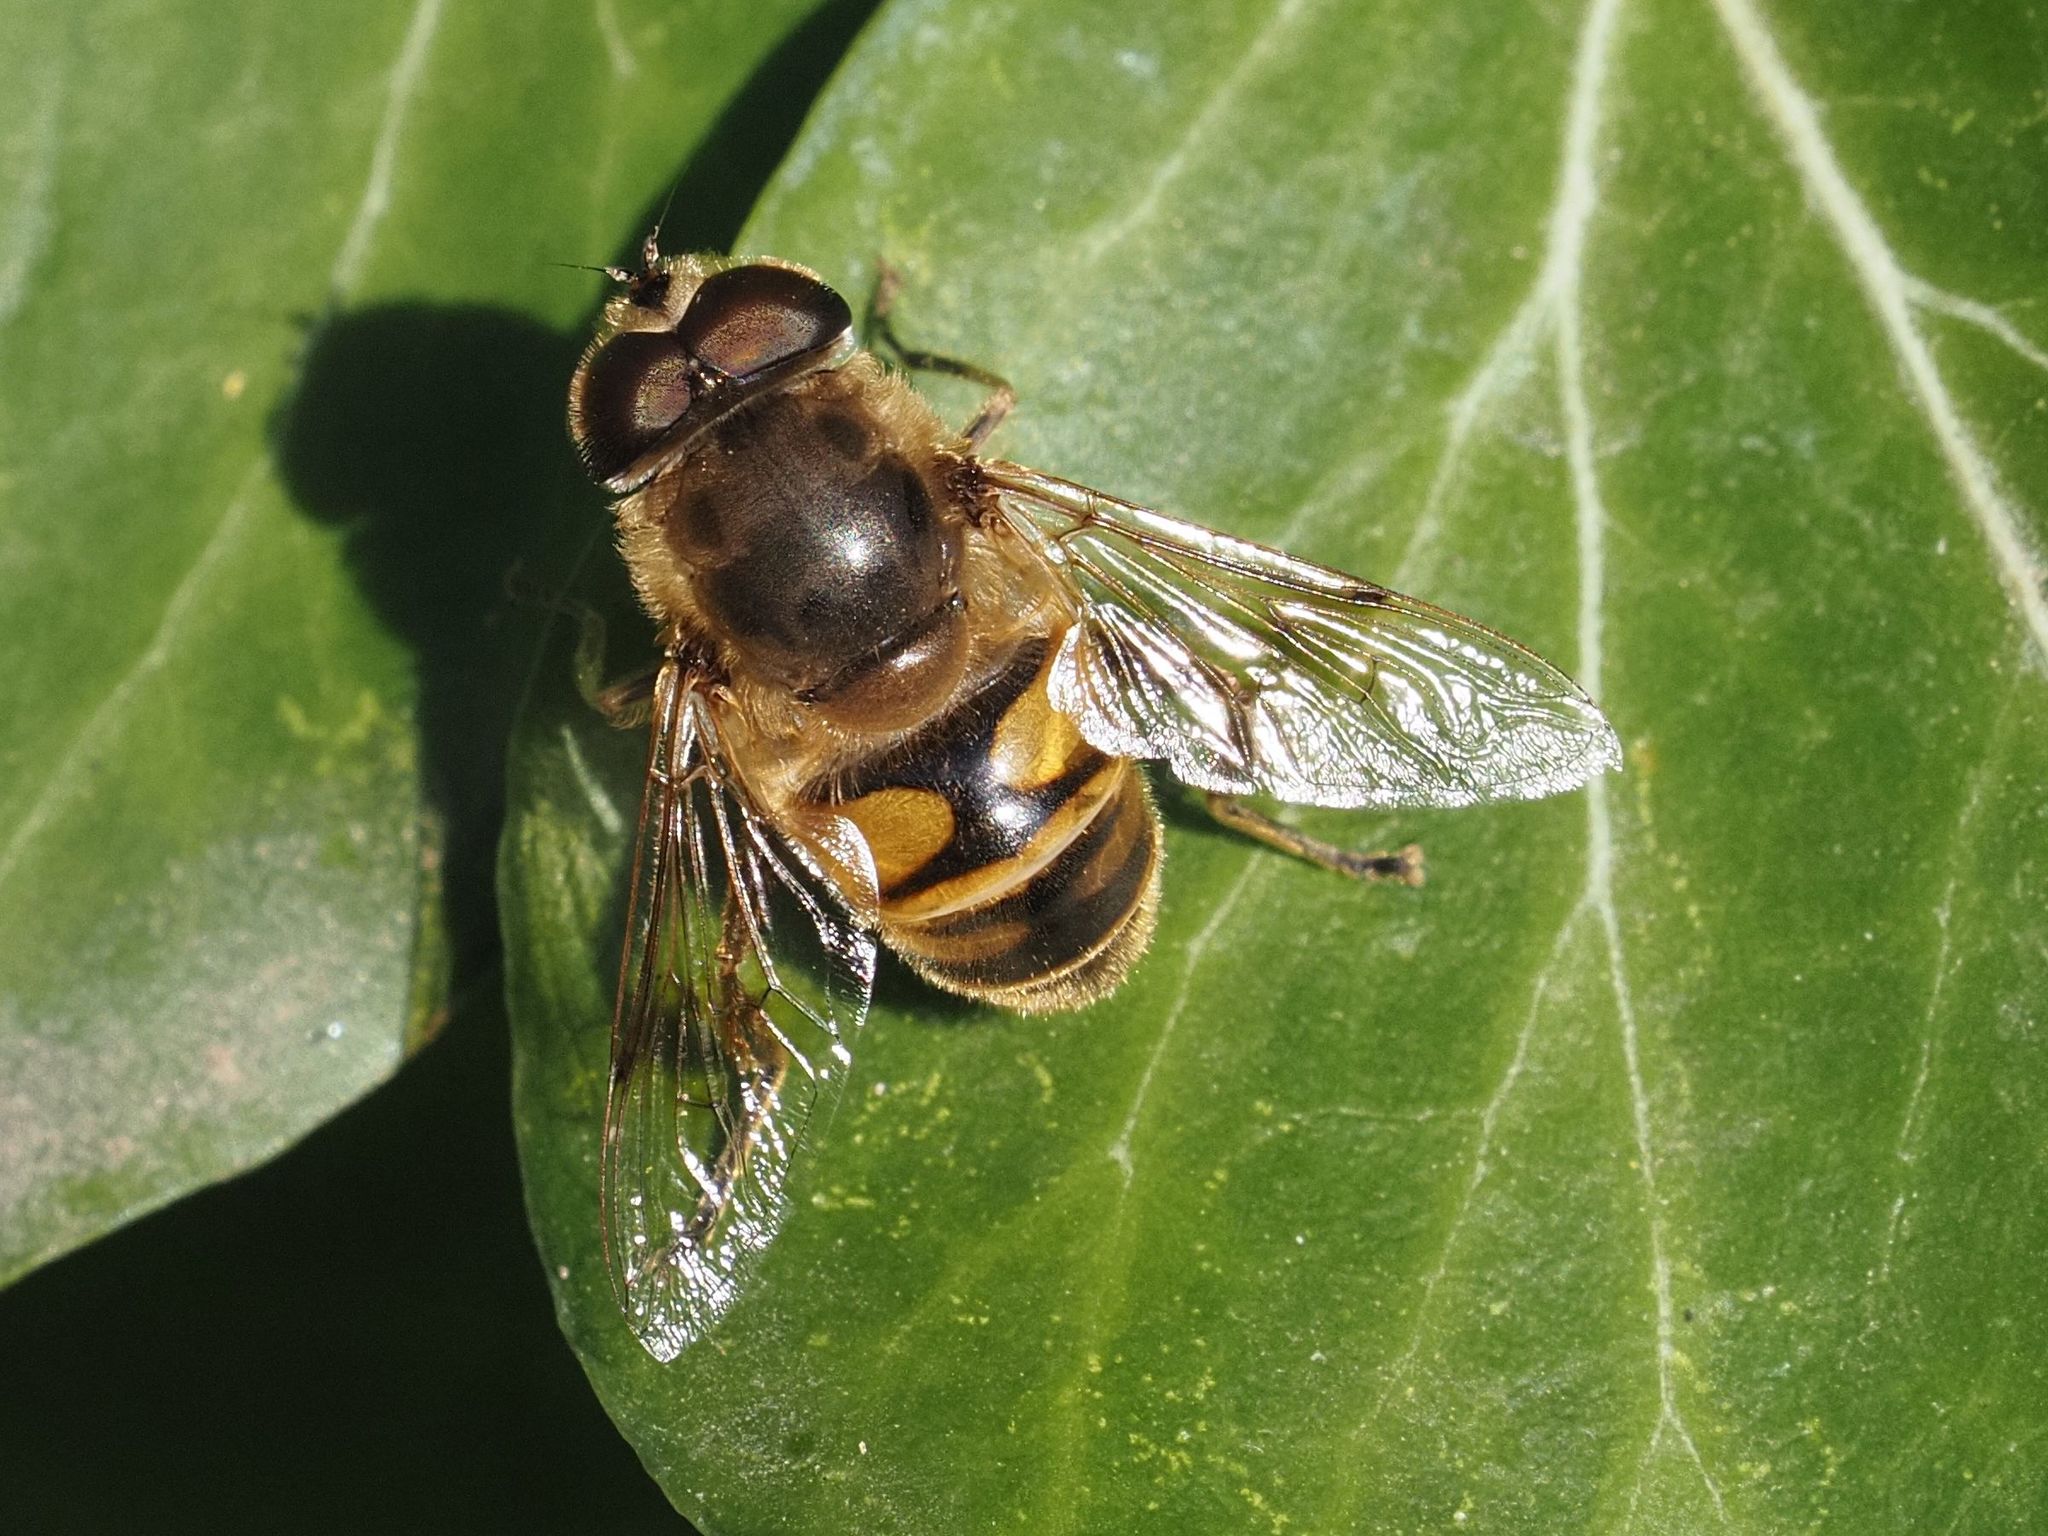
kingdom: Animalia
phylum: Arthropoda
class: Insecta
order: Diptera
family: Syrphidae
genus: Eristalis
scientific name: Eristalis tenax
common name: Drone fly
